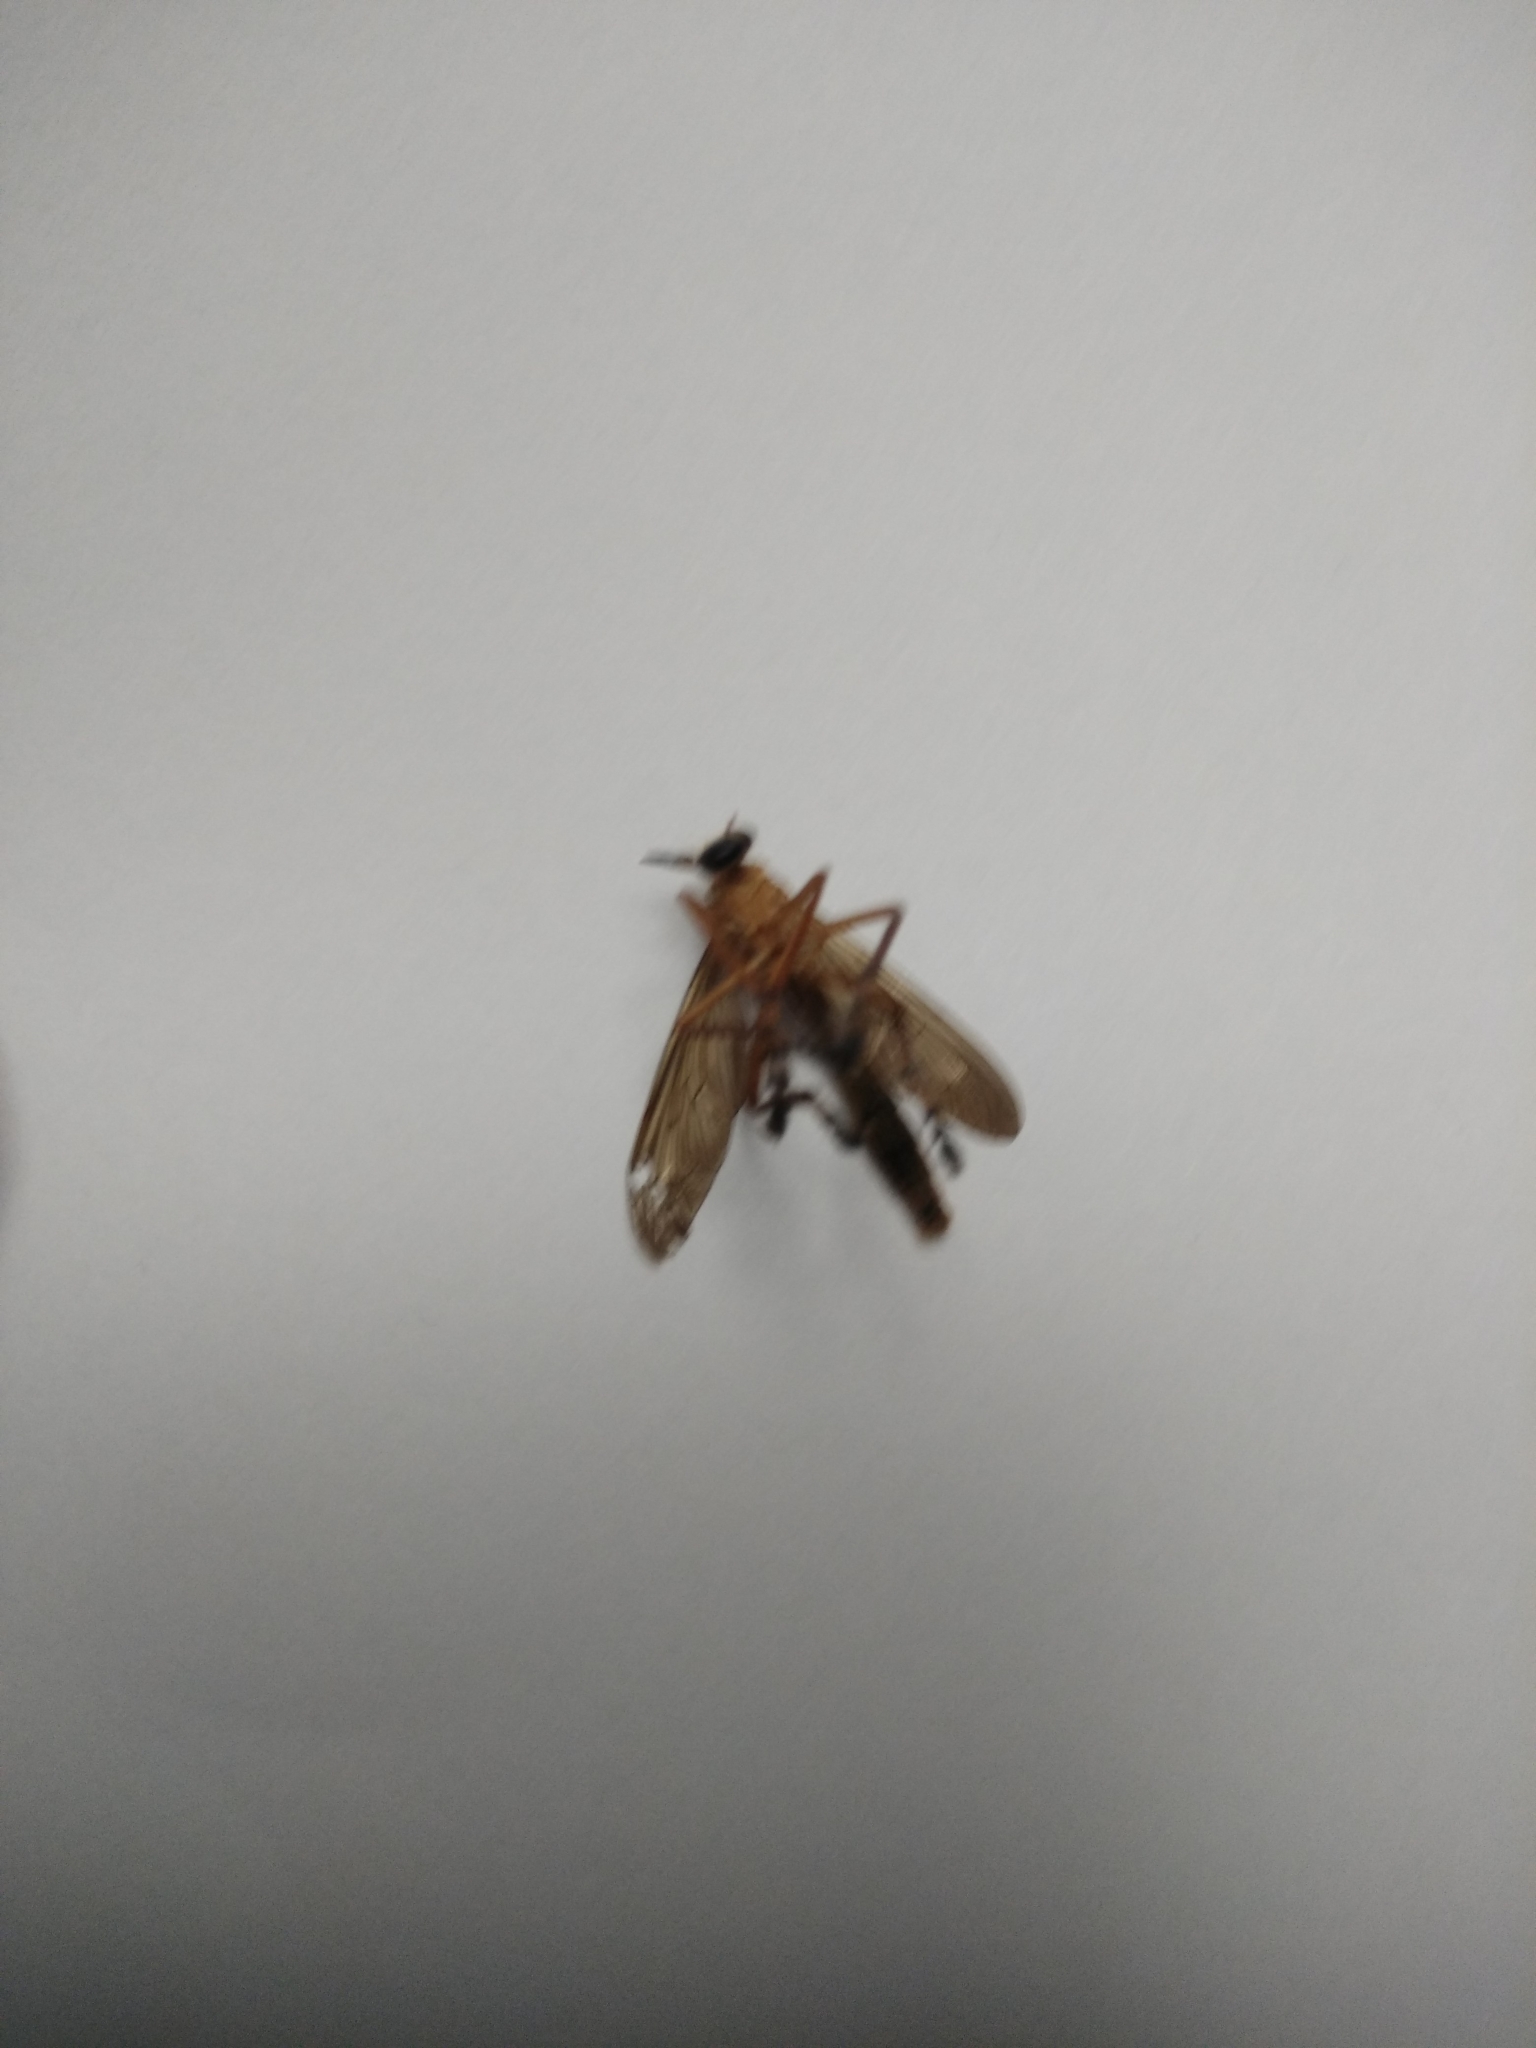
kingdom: Animalia
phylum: Arthropoda
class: Insecta
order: Diptera
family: Asilidae
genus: Diogmites
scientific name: Diogmites neoternatus
